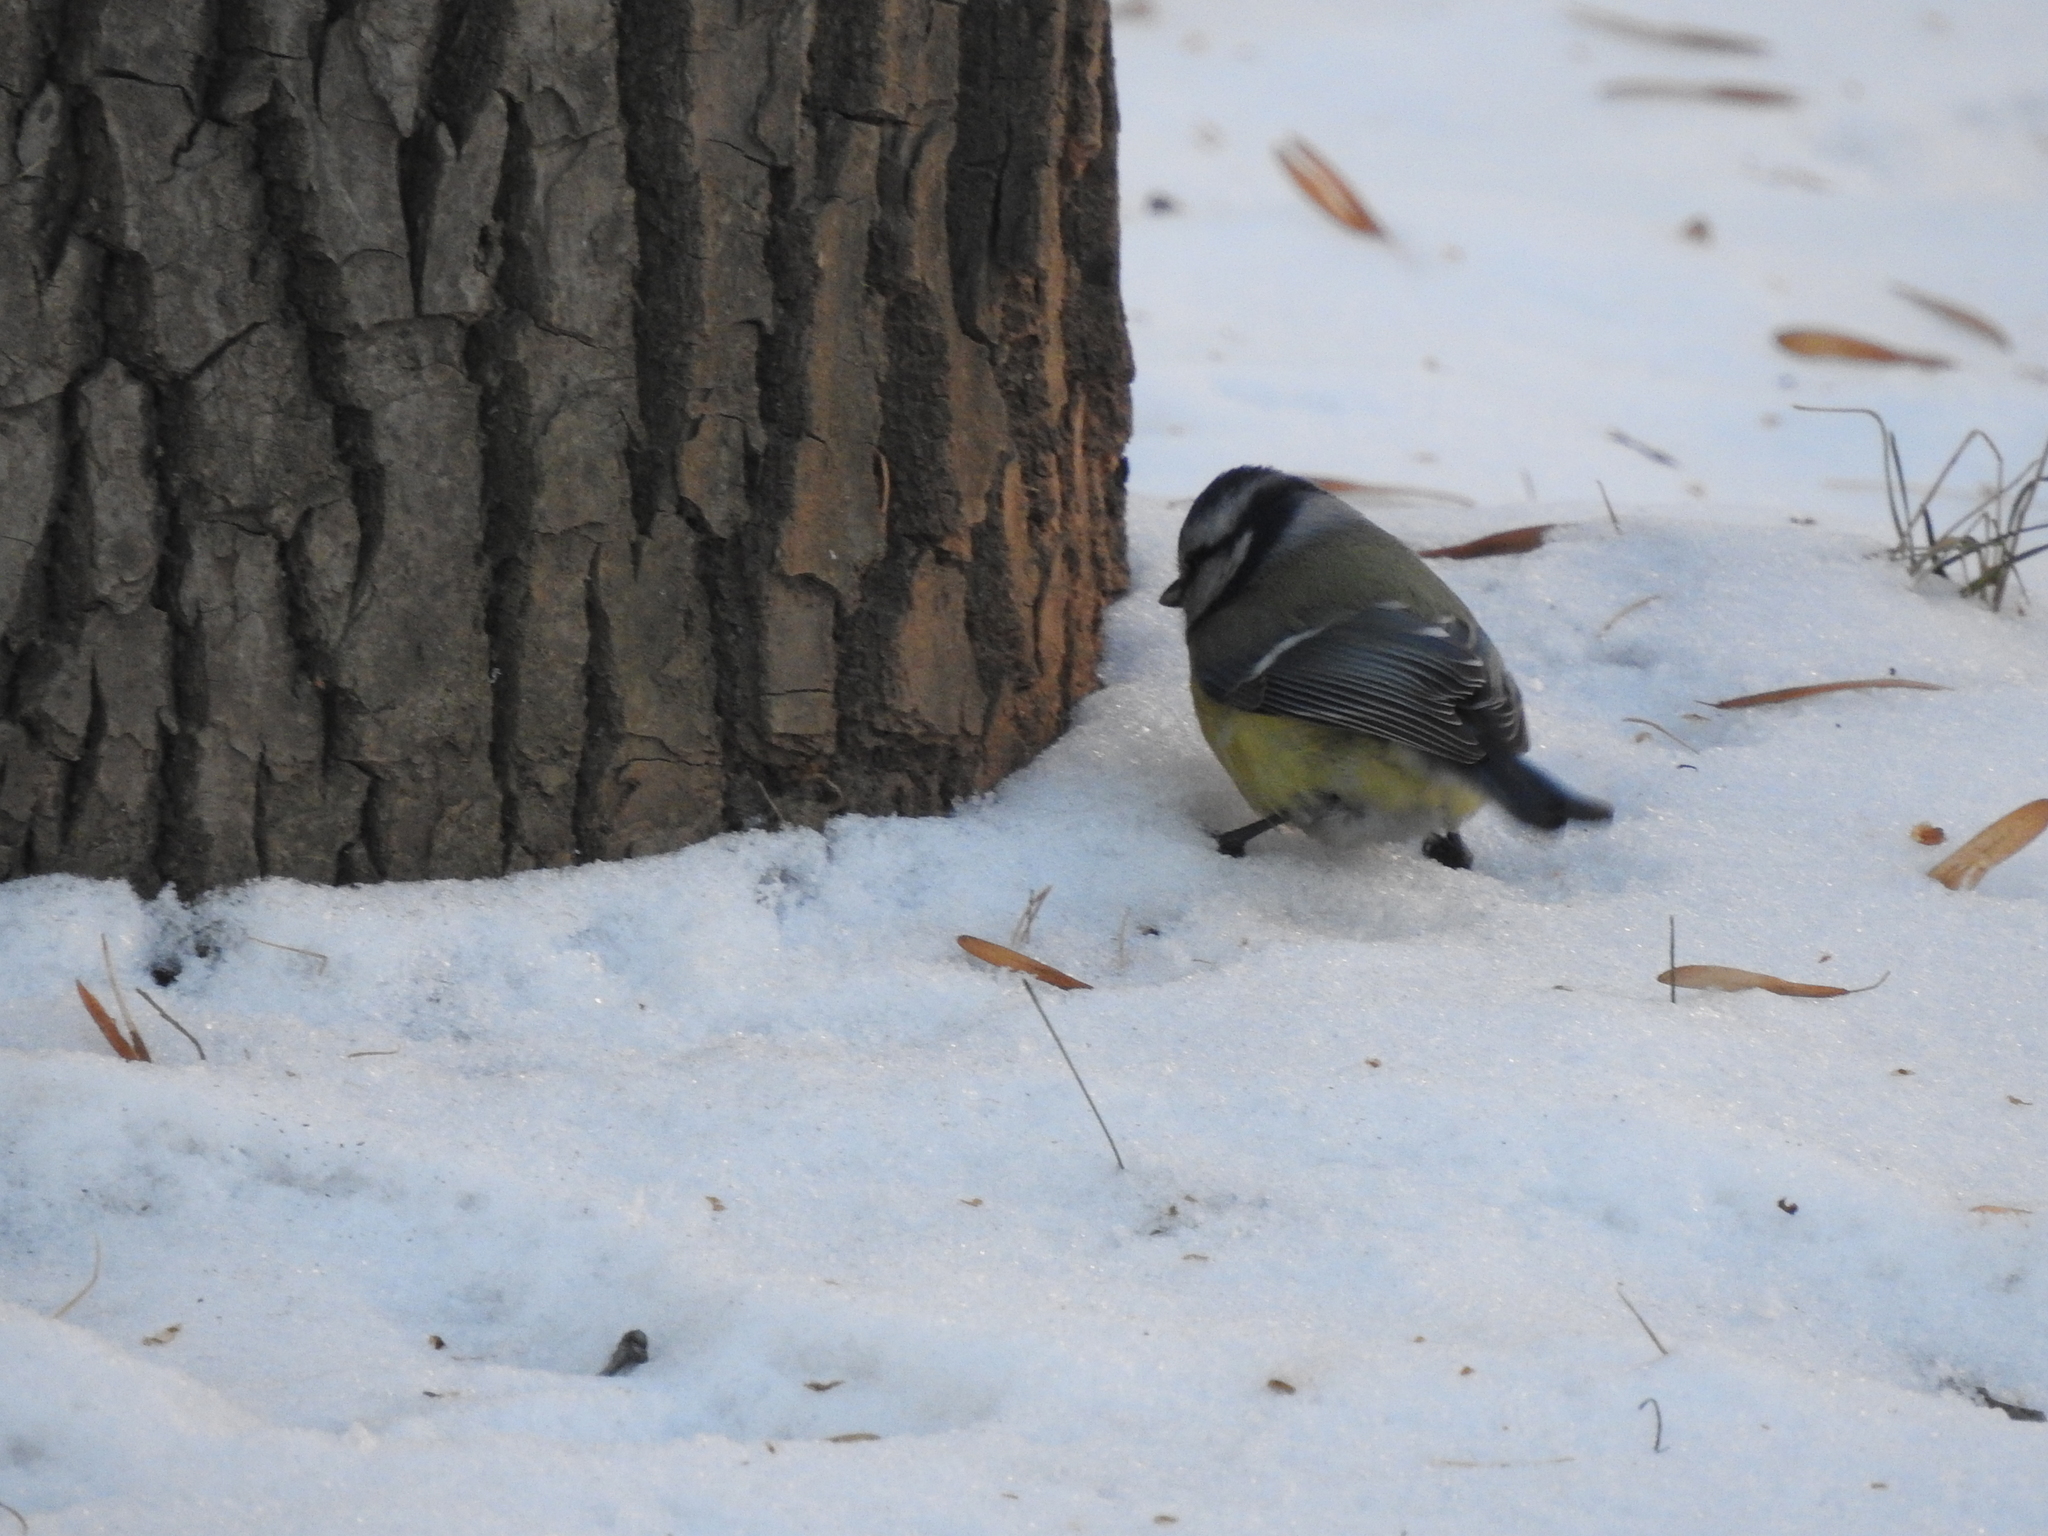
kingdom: Animalia
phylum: Chordata
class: Aves
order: Passeriformes
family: Paridae
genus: Cyanistes
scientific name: Cyanistes caeruleus
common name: Eurasian blue tit
